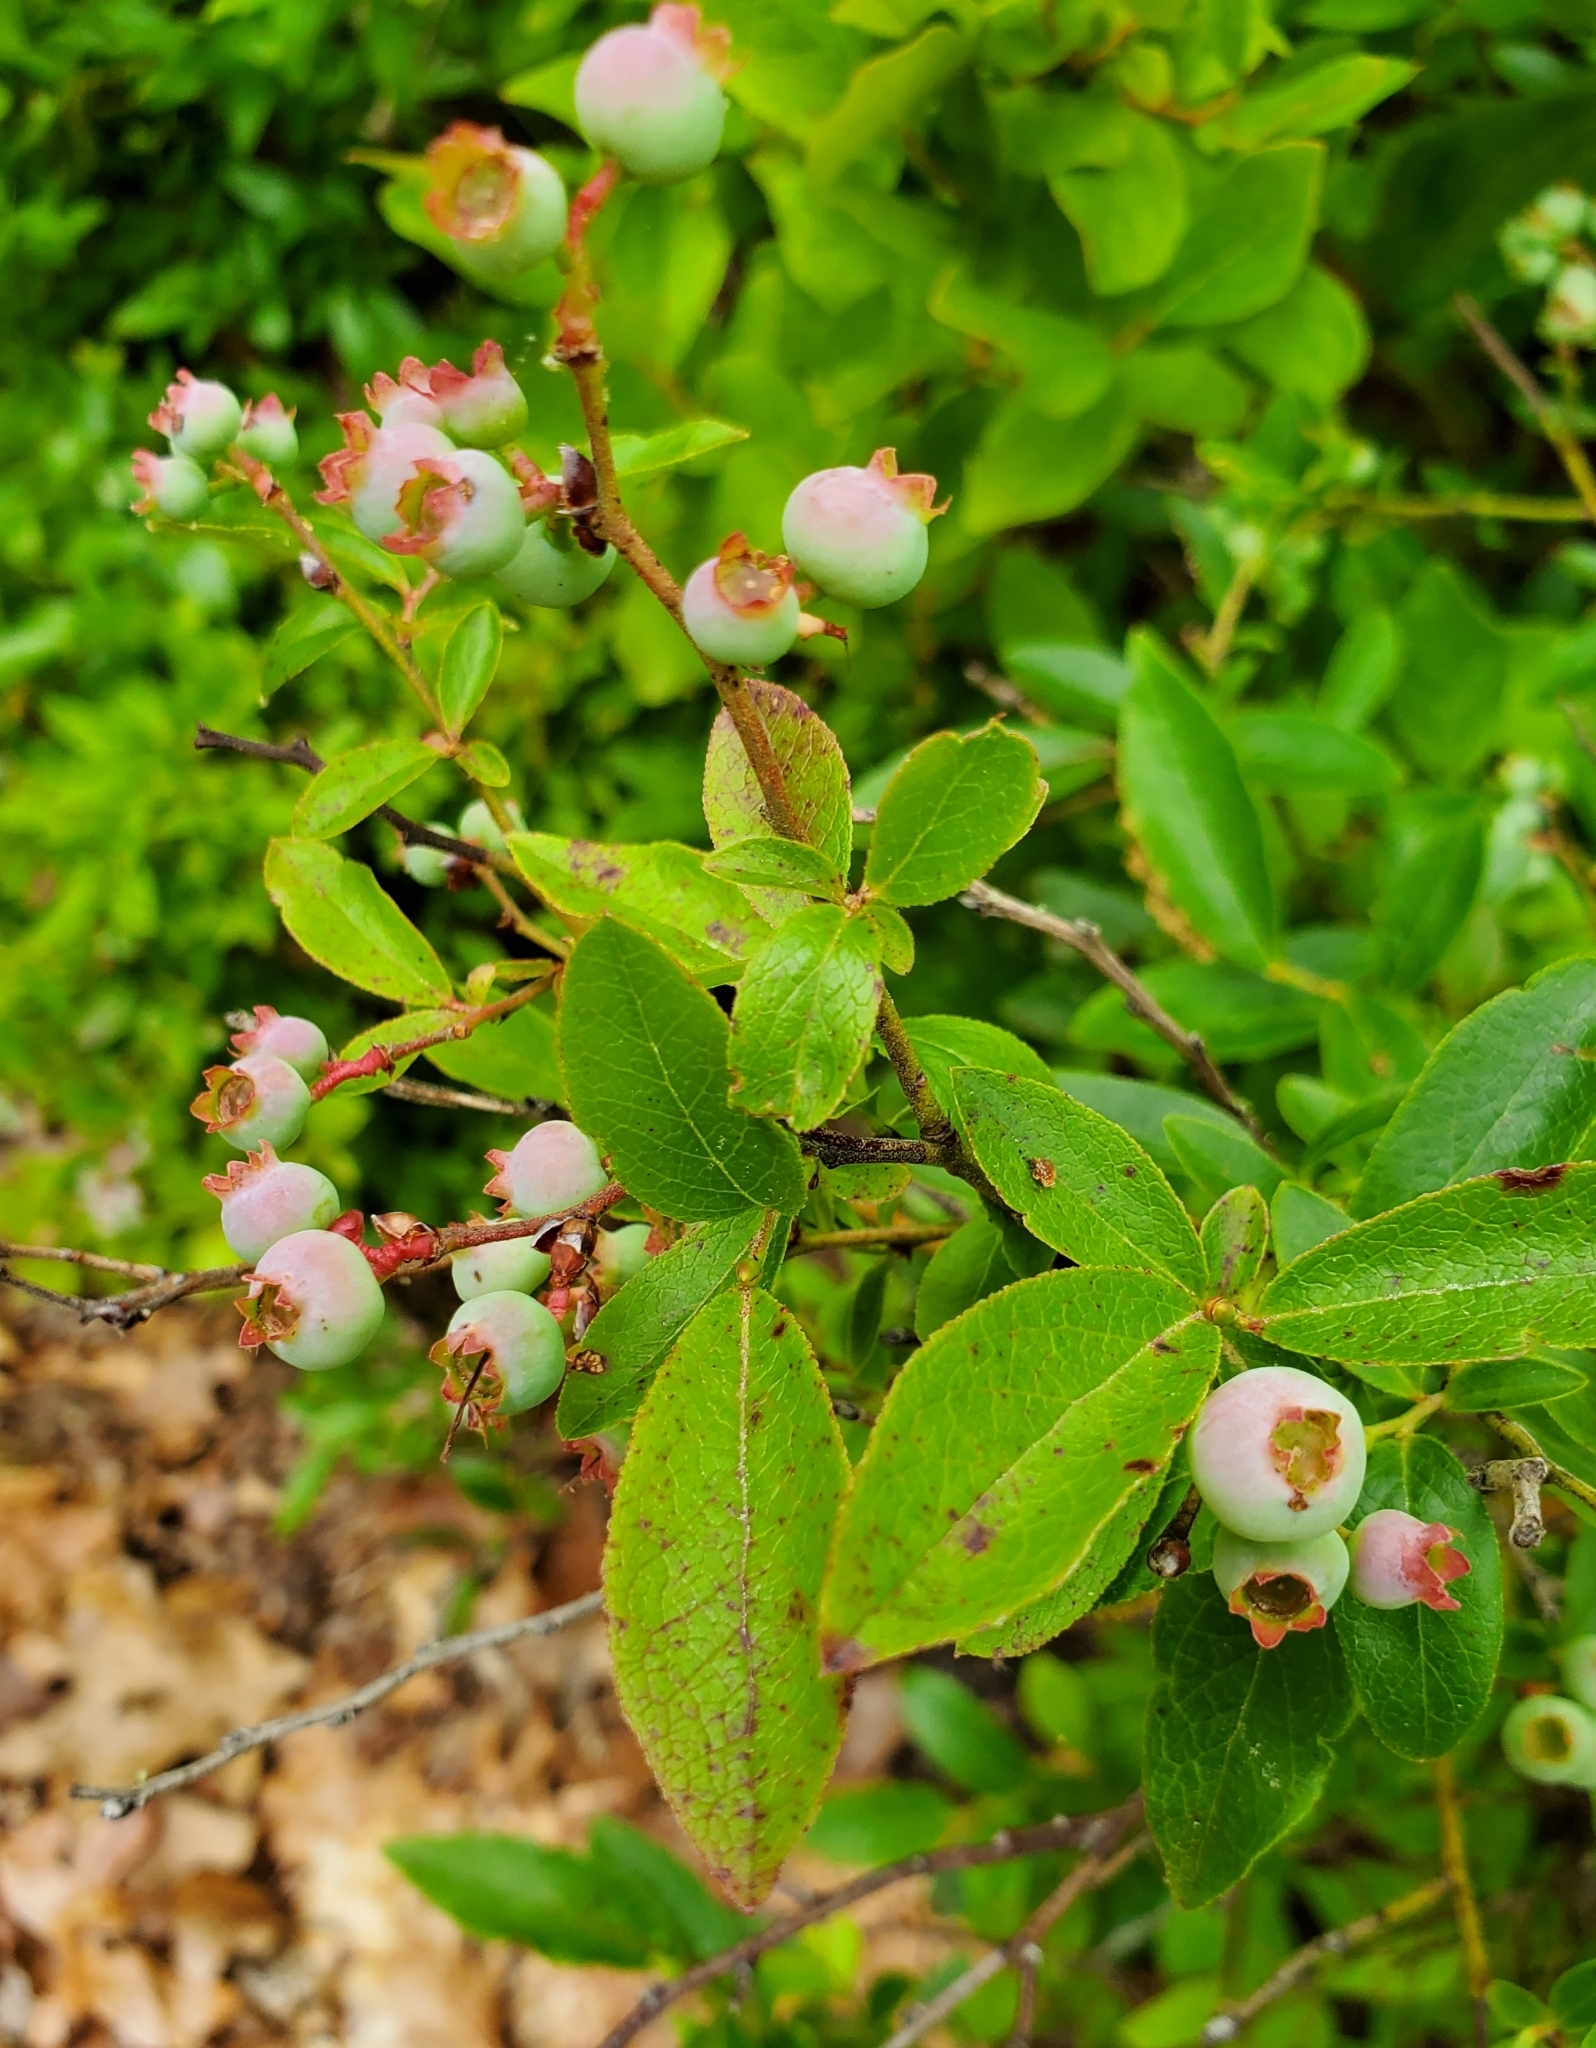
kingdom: Plantae
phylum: Tracheophyta
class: Magnoliopsida
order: Ericales
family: Ericaceae
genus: Vaccinium
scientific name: Vaccinium angustifolium
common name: Early lowbush blueberry
